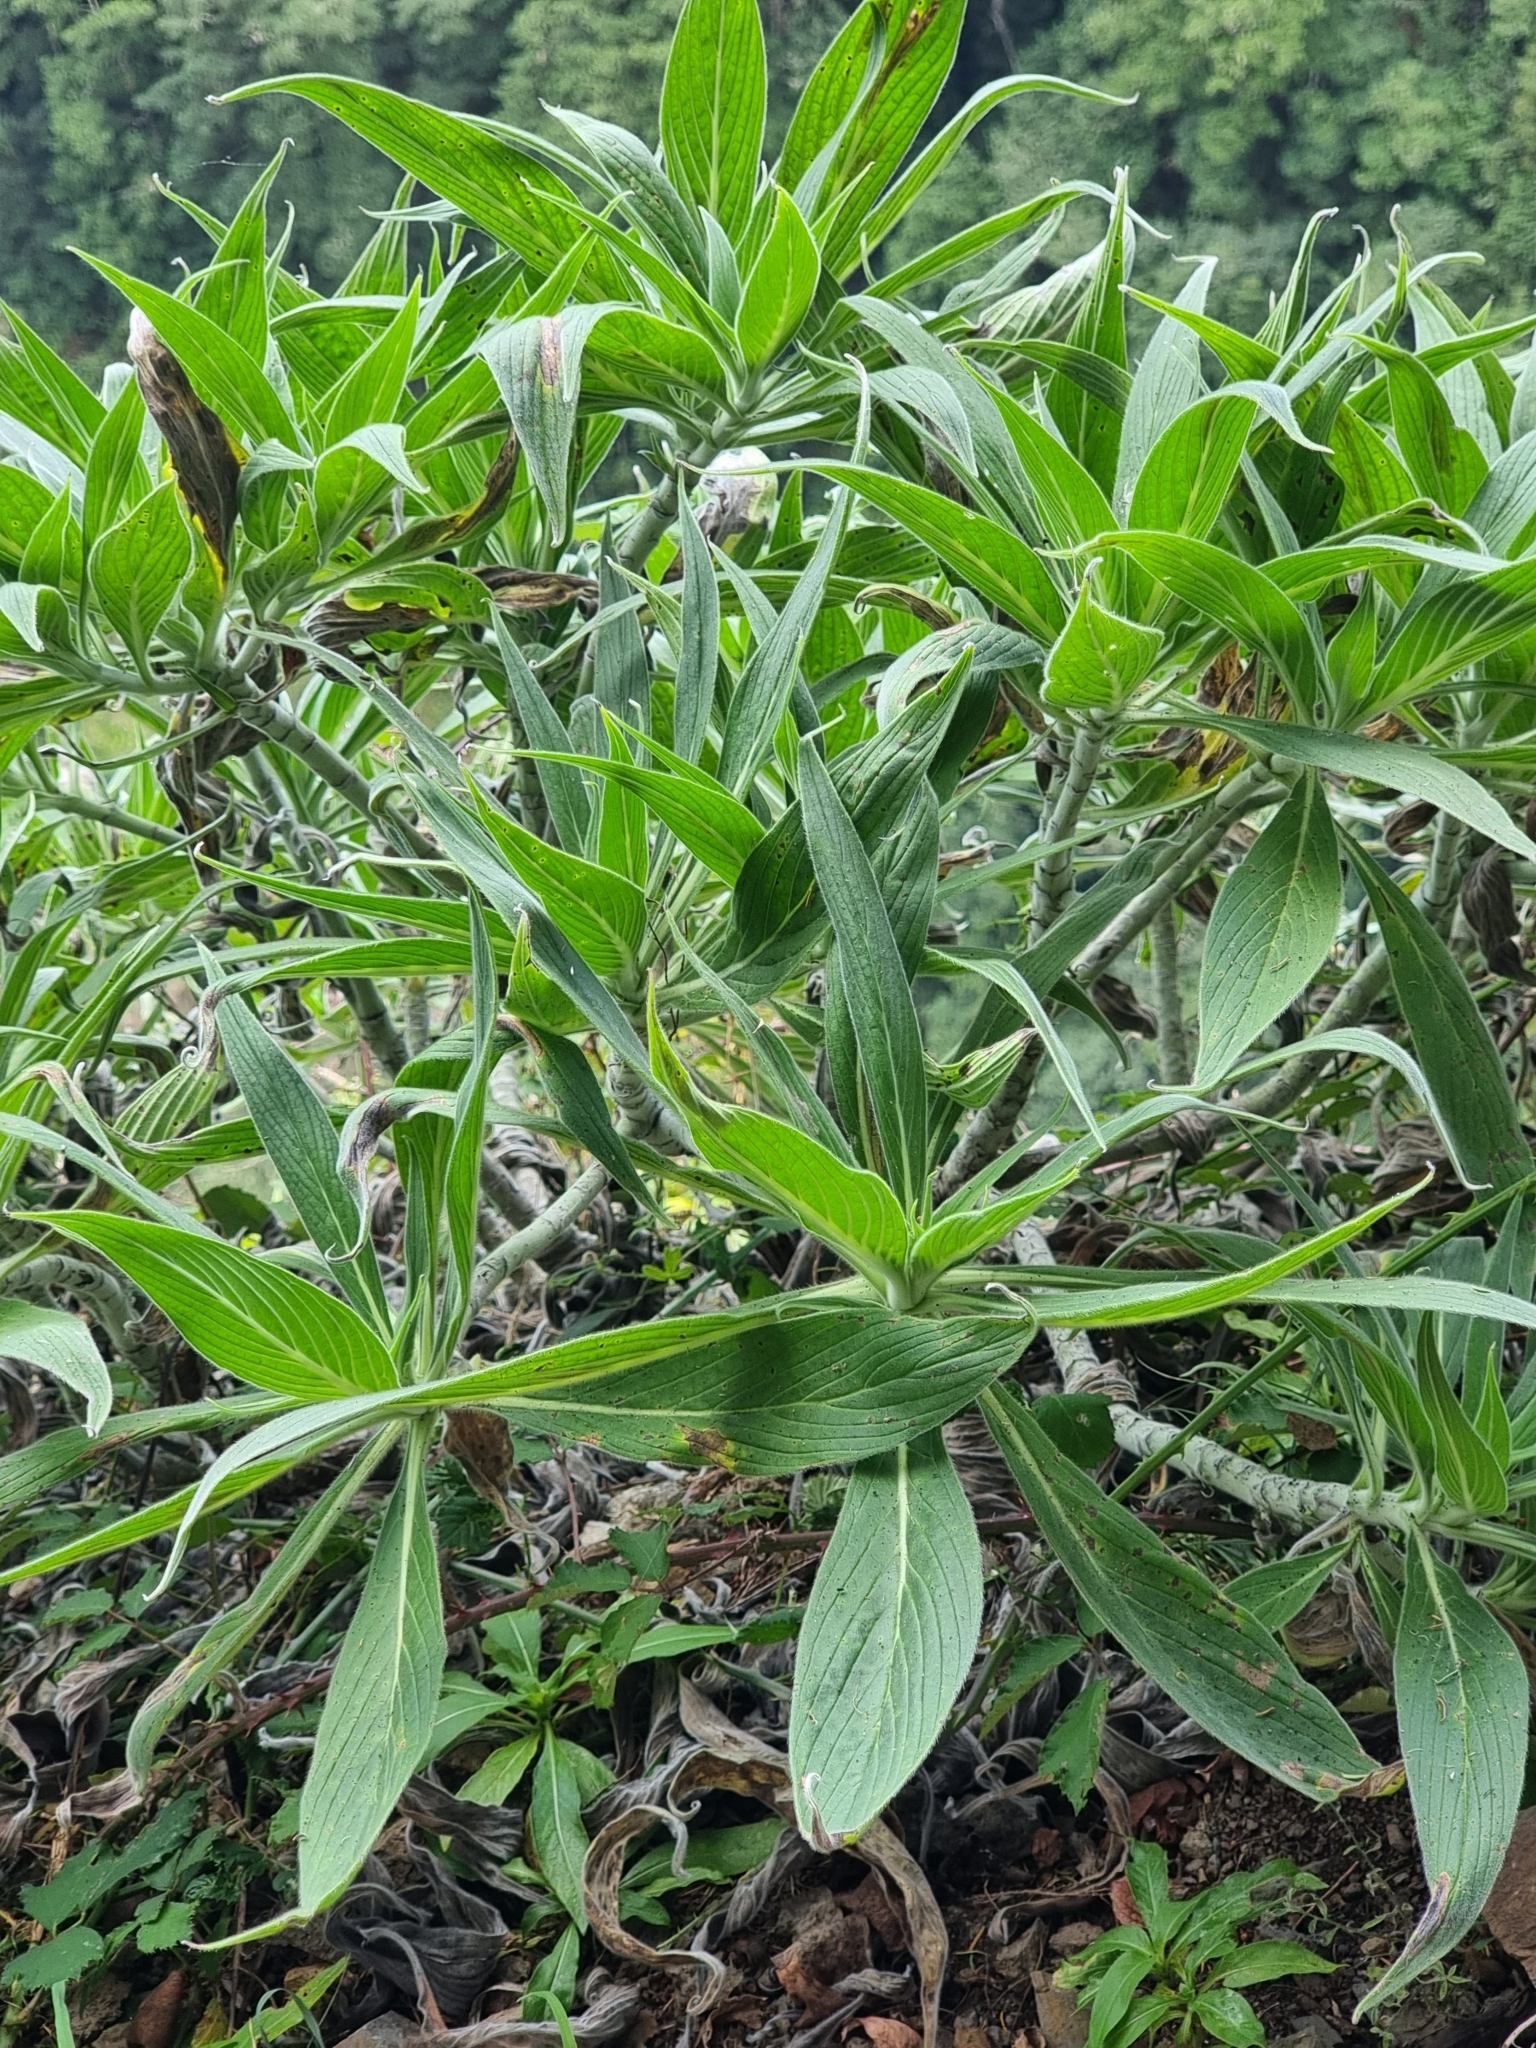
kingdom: Plantae
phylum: Tracheophyta
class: Magnoliopsida
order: Boraginales
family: Boraginaceae
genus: Echium
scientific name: Echium candicans
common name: Pride of madeira
